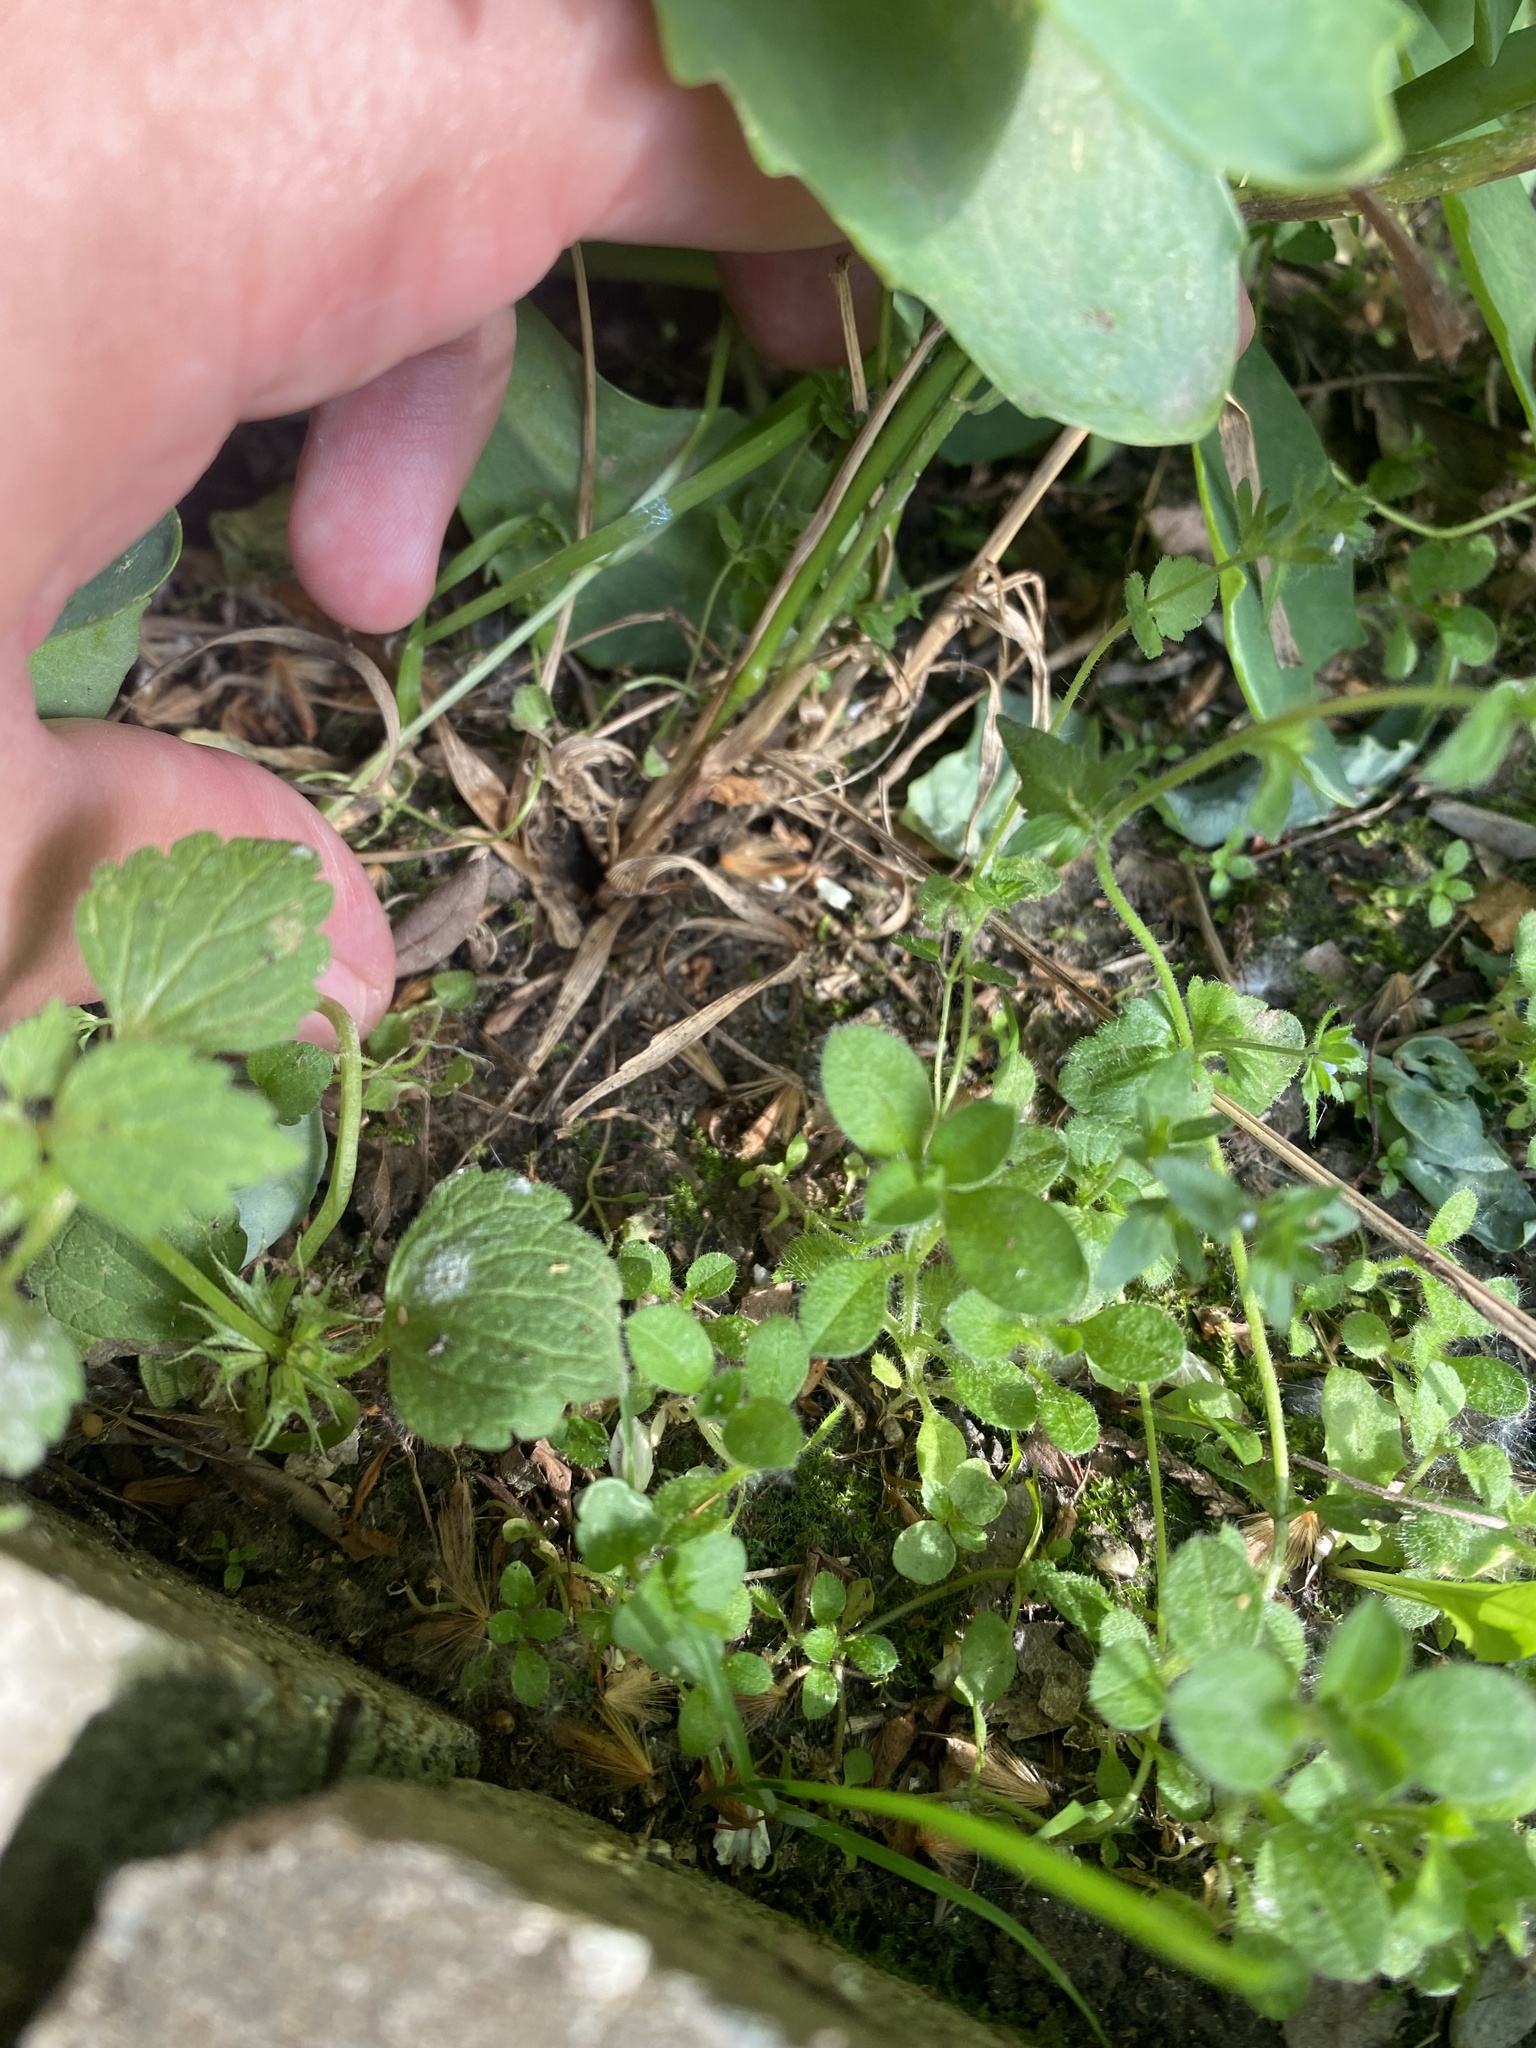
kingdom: Plantae
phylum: Tracheophyta
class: Liliopsida
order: Poales
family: Poaceae
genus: Elymus
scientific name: Elymus repens
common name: Quackgrass
